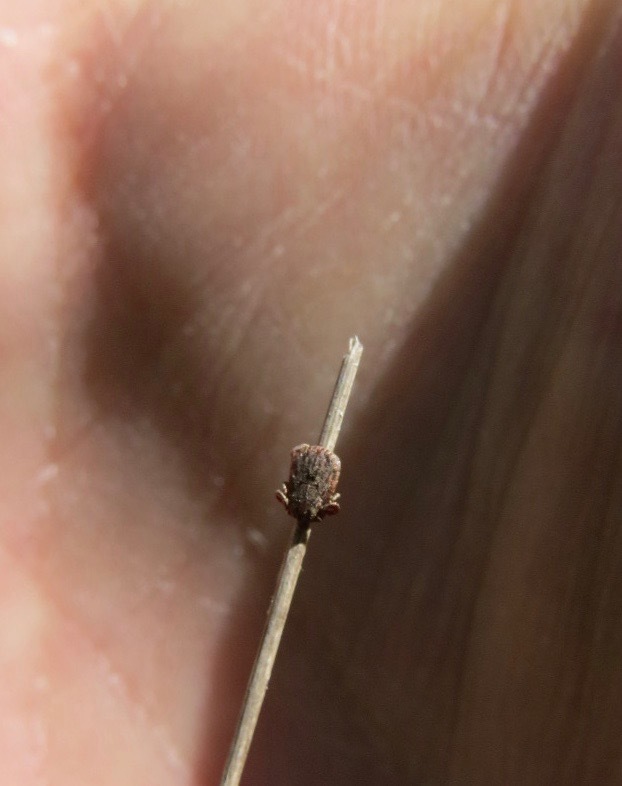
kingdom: Animalia
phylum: Arthropoda
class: Arachnida
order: Ixodida
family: Ixodidae
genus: Dermacentor
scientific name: Dermacentor occidentalis
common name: Net tick
